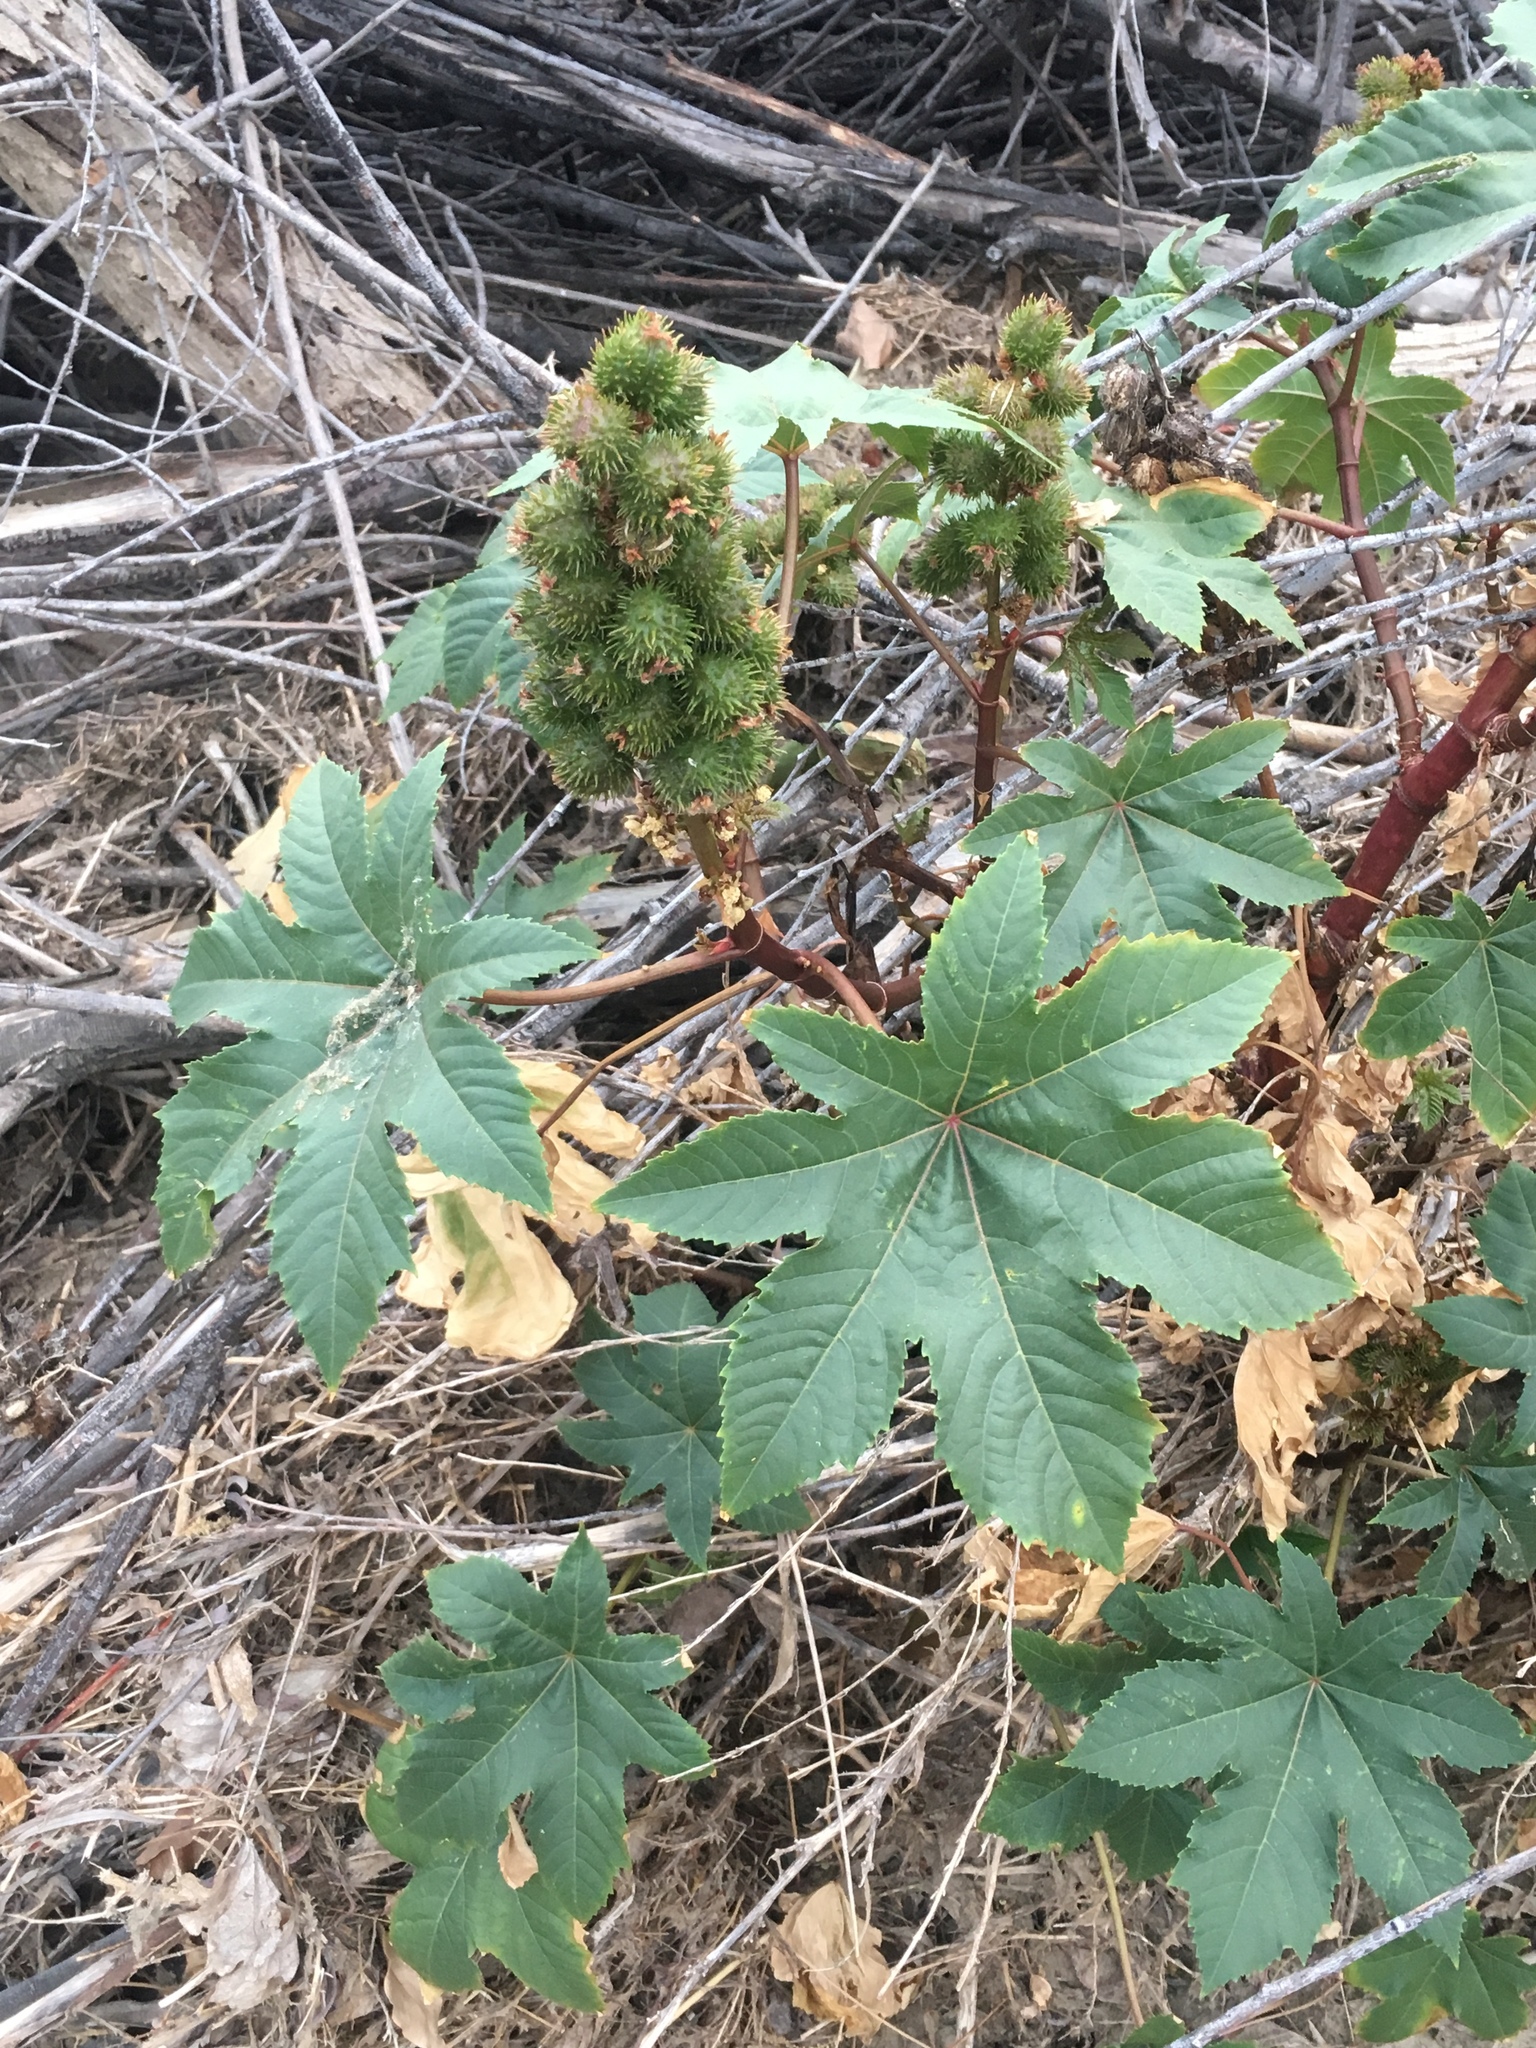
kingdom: Plantae
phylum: Tracheophyta
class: Magnoliopsida
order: Malpighiales
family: Euphorbiaceae
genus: Ricinus
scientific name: Ricinus communis
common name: Castor-oil-plant
